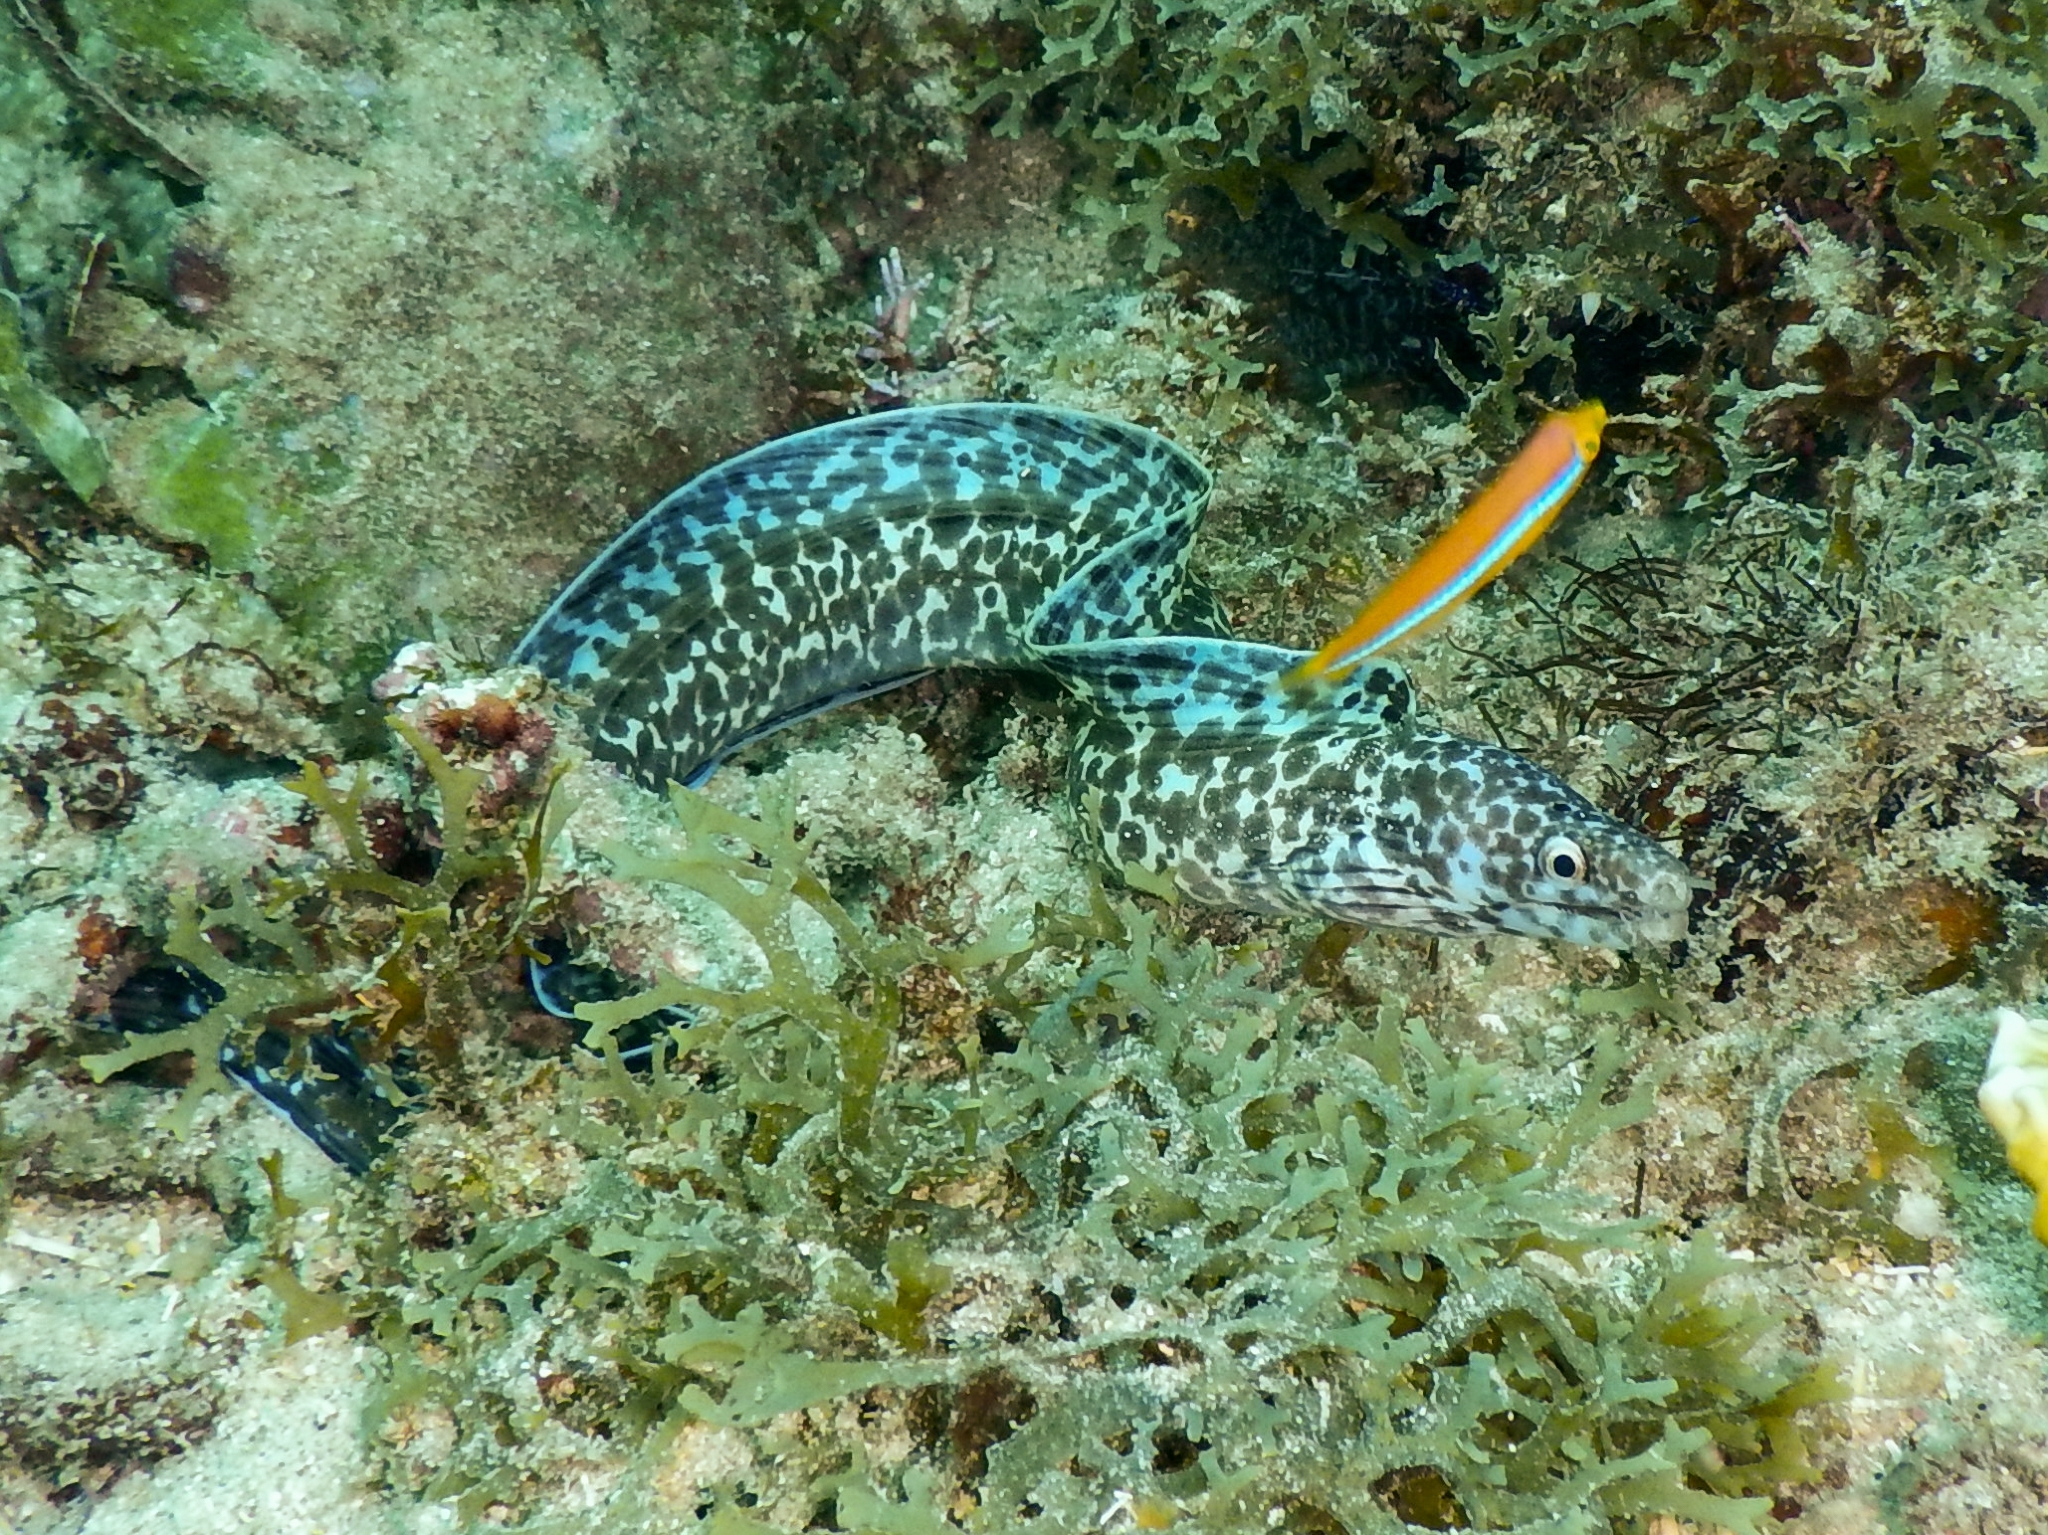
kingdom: Animalia
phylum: Chordata
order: Anguilliformes
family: Muraenidae
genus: Gymnothorax
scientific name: Gymnothorax moringa
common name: Spotted moray
